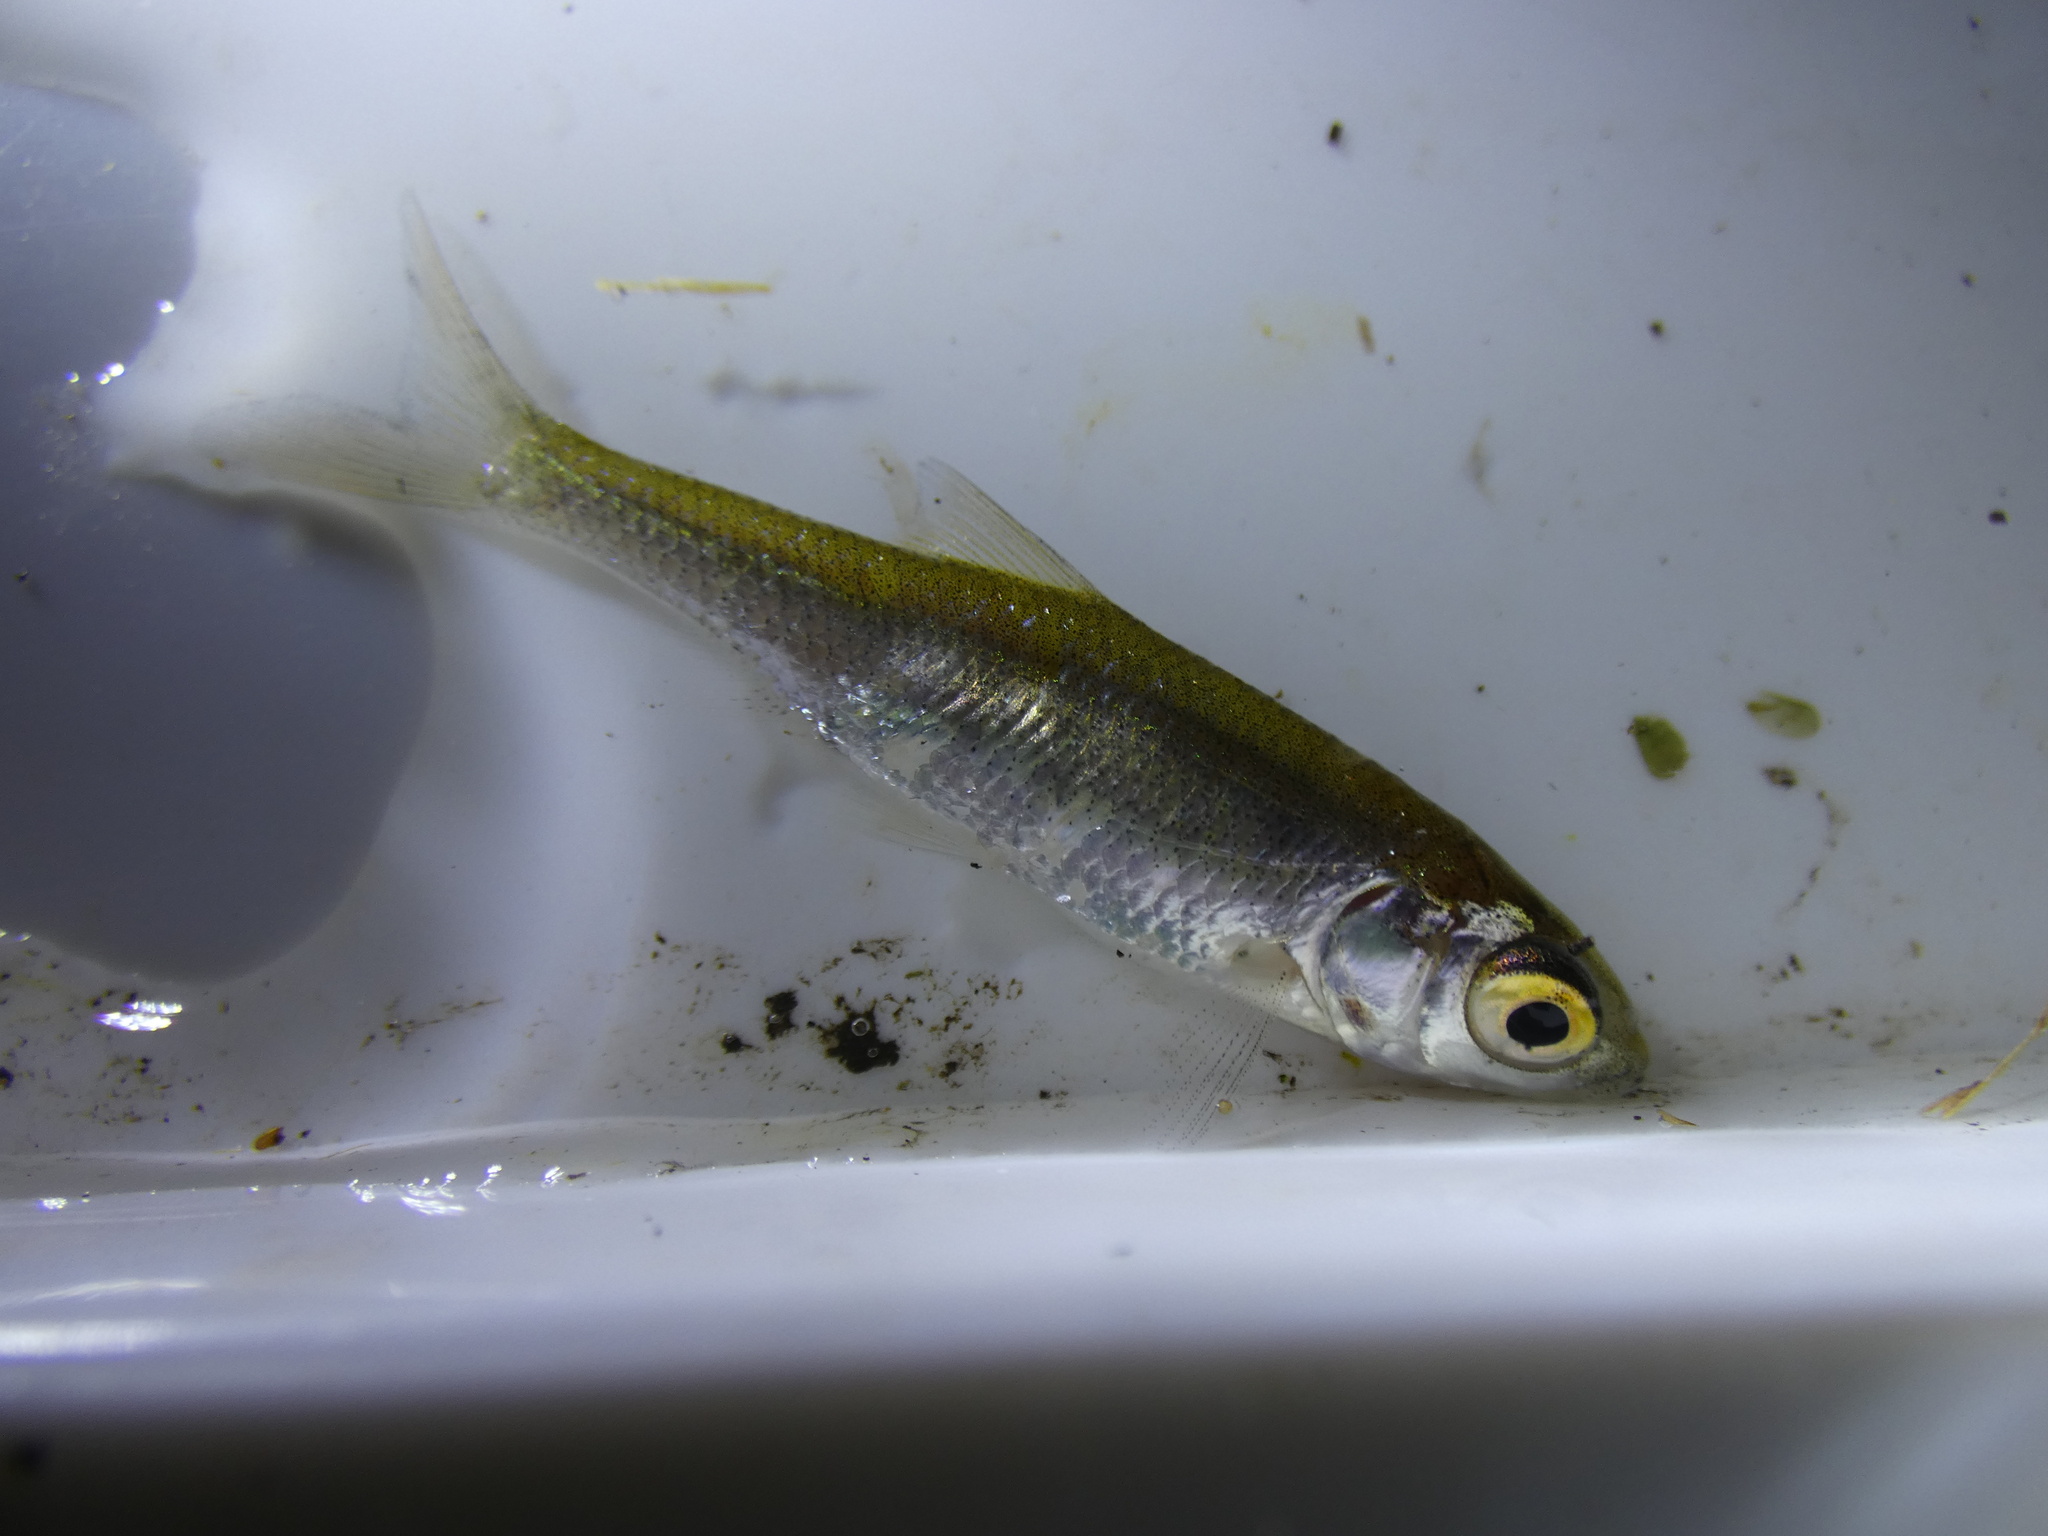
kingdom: Animalia
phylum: Chordata
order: Cypriniformes
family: Cyprinidae
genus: Rutilus
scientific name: Rutilus rutilus
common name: Roach
